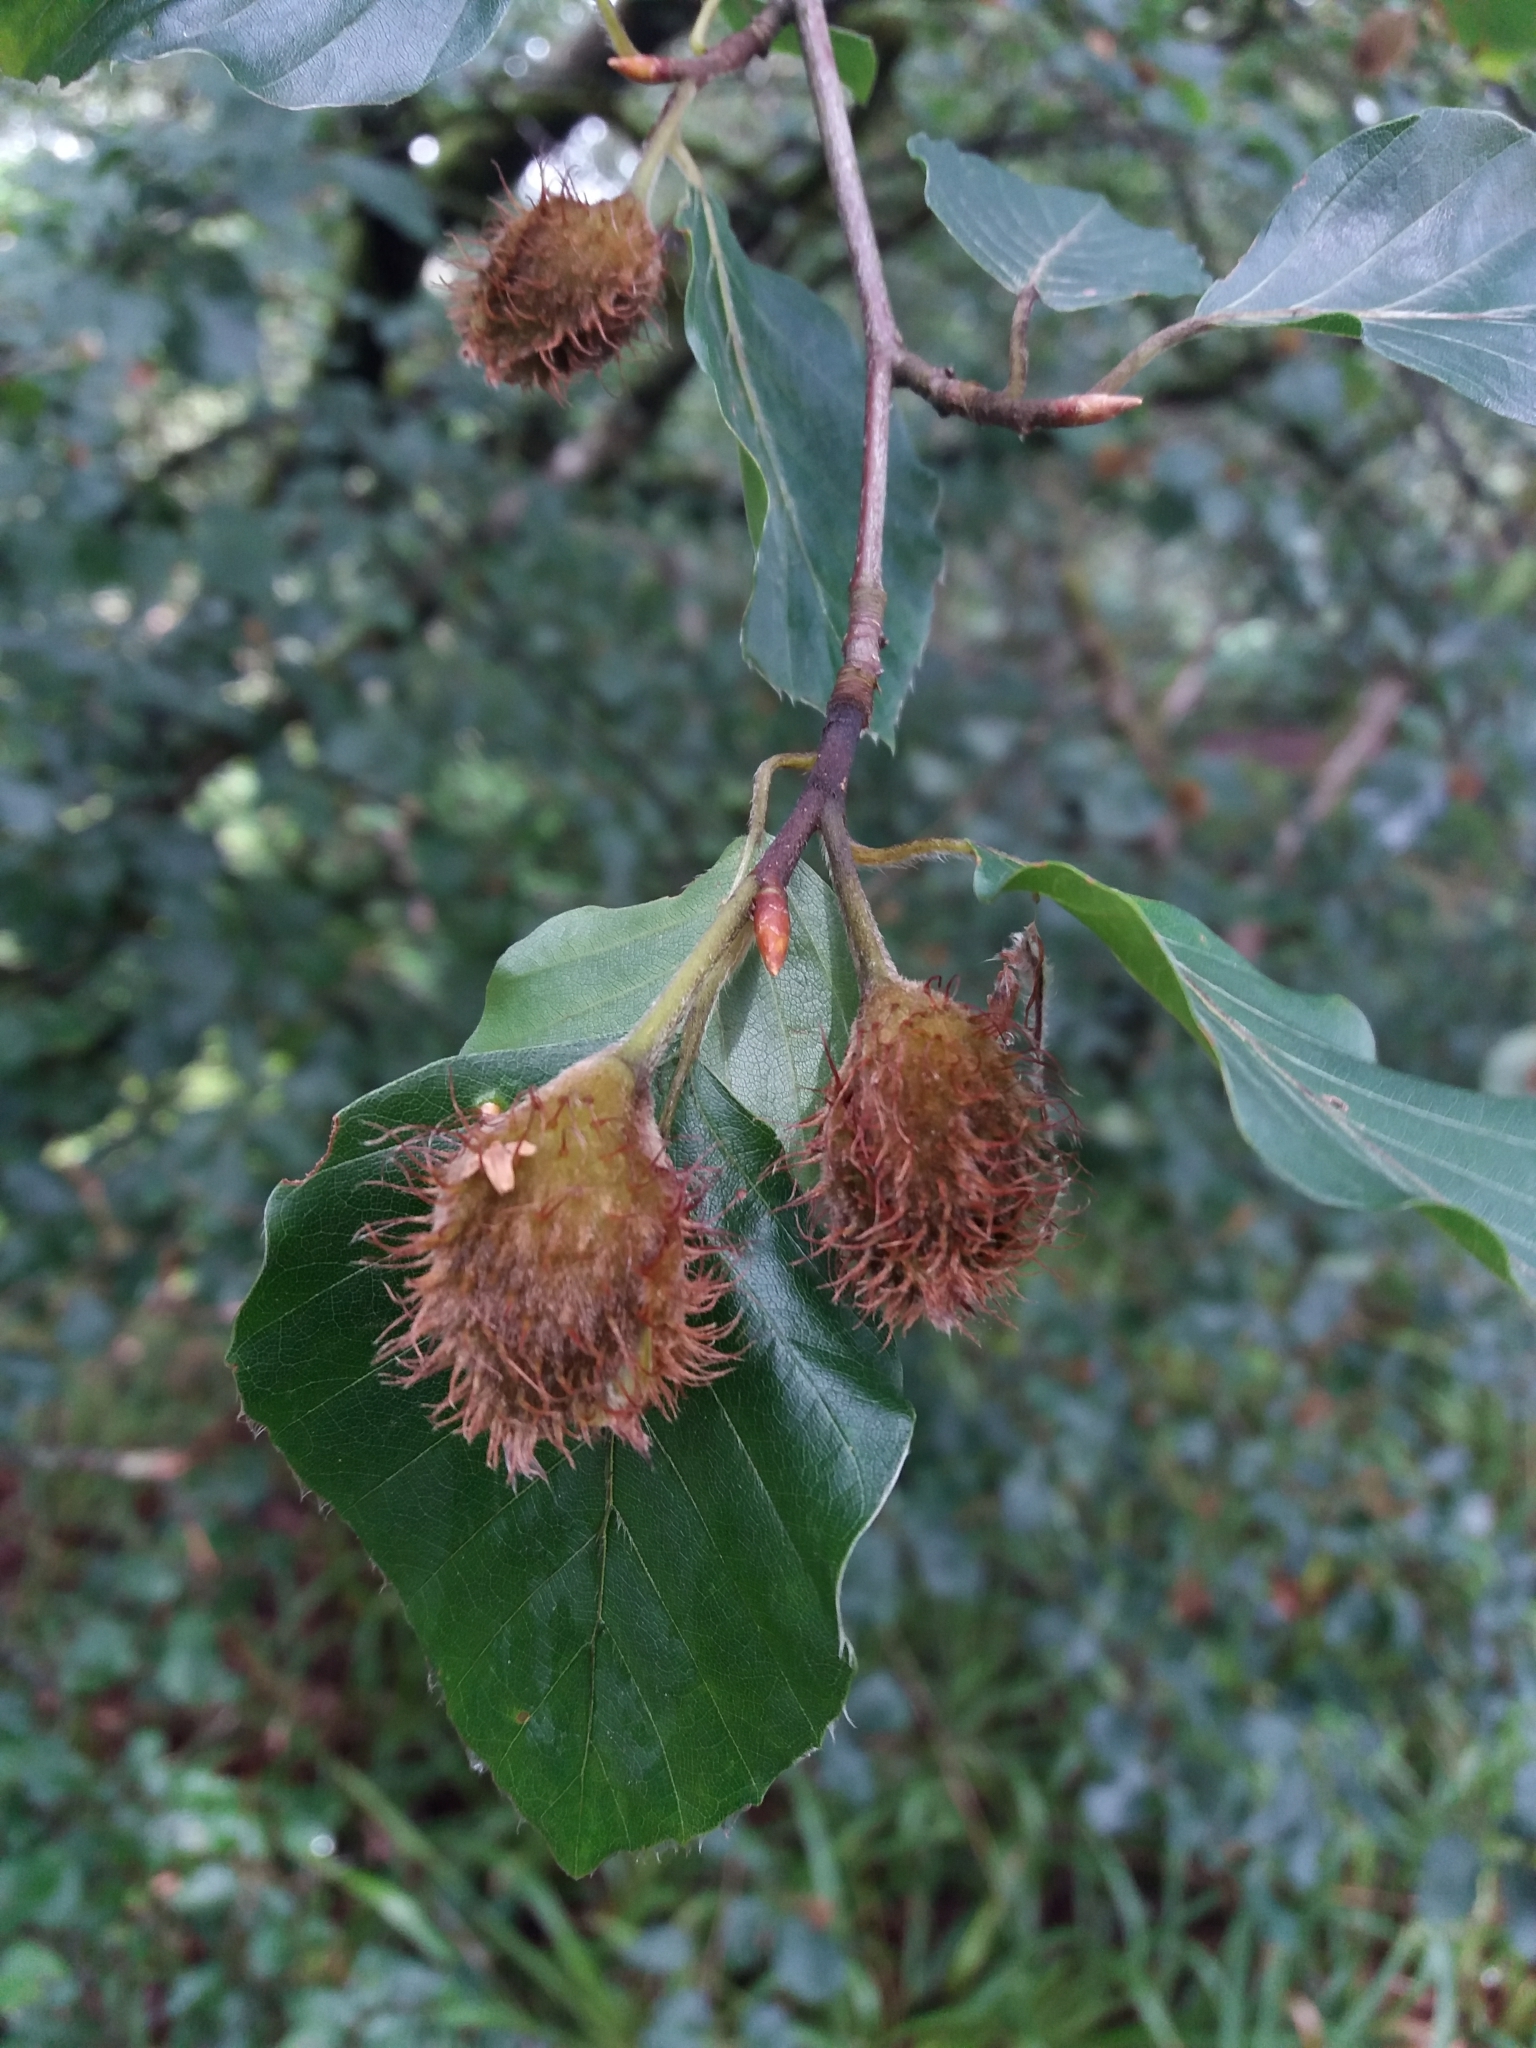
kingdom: Plantae
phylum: Tracheophyta
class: Magnoliopsida
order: Fagales
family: Fagaceae
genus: Fagus
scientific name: Fagus sylvatica
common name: Beech
